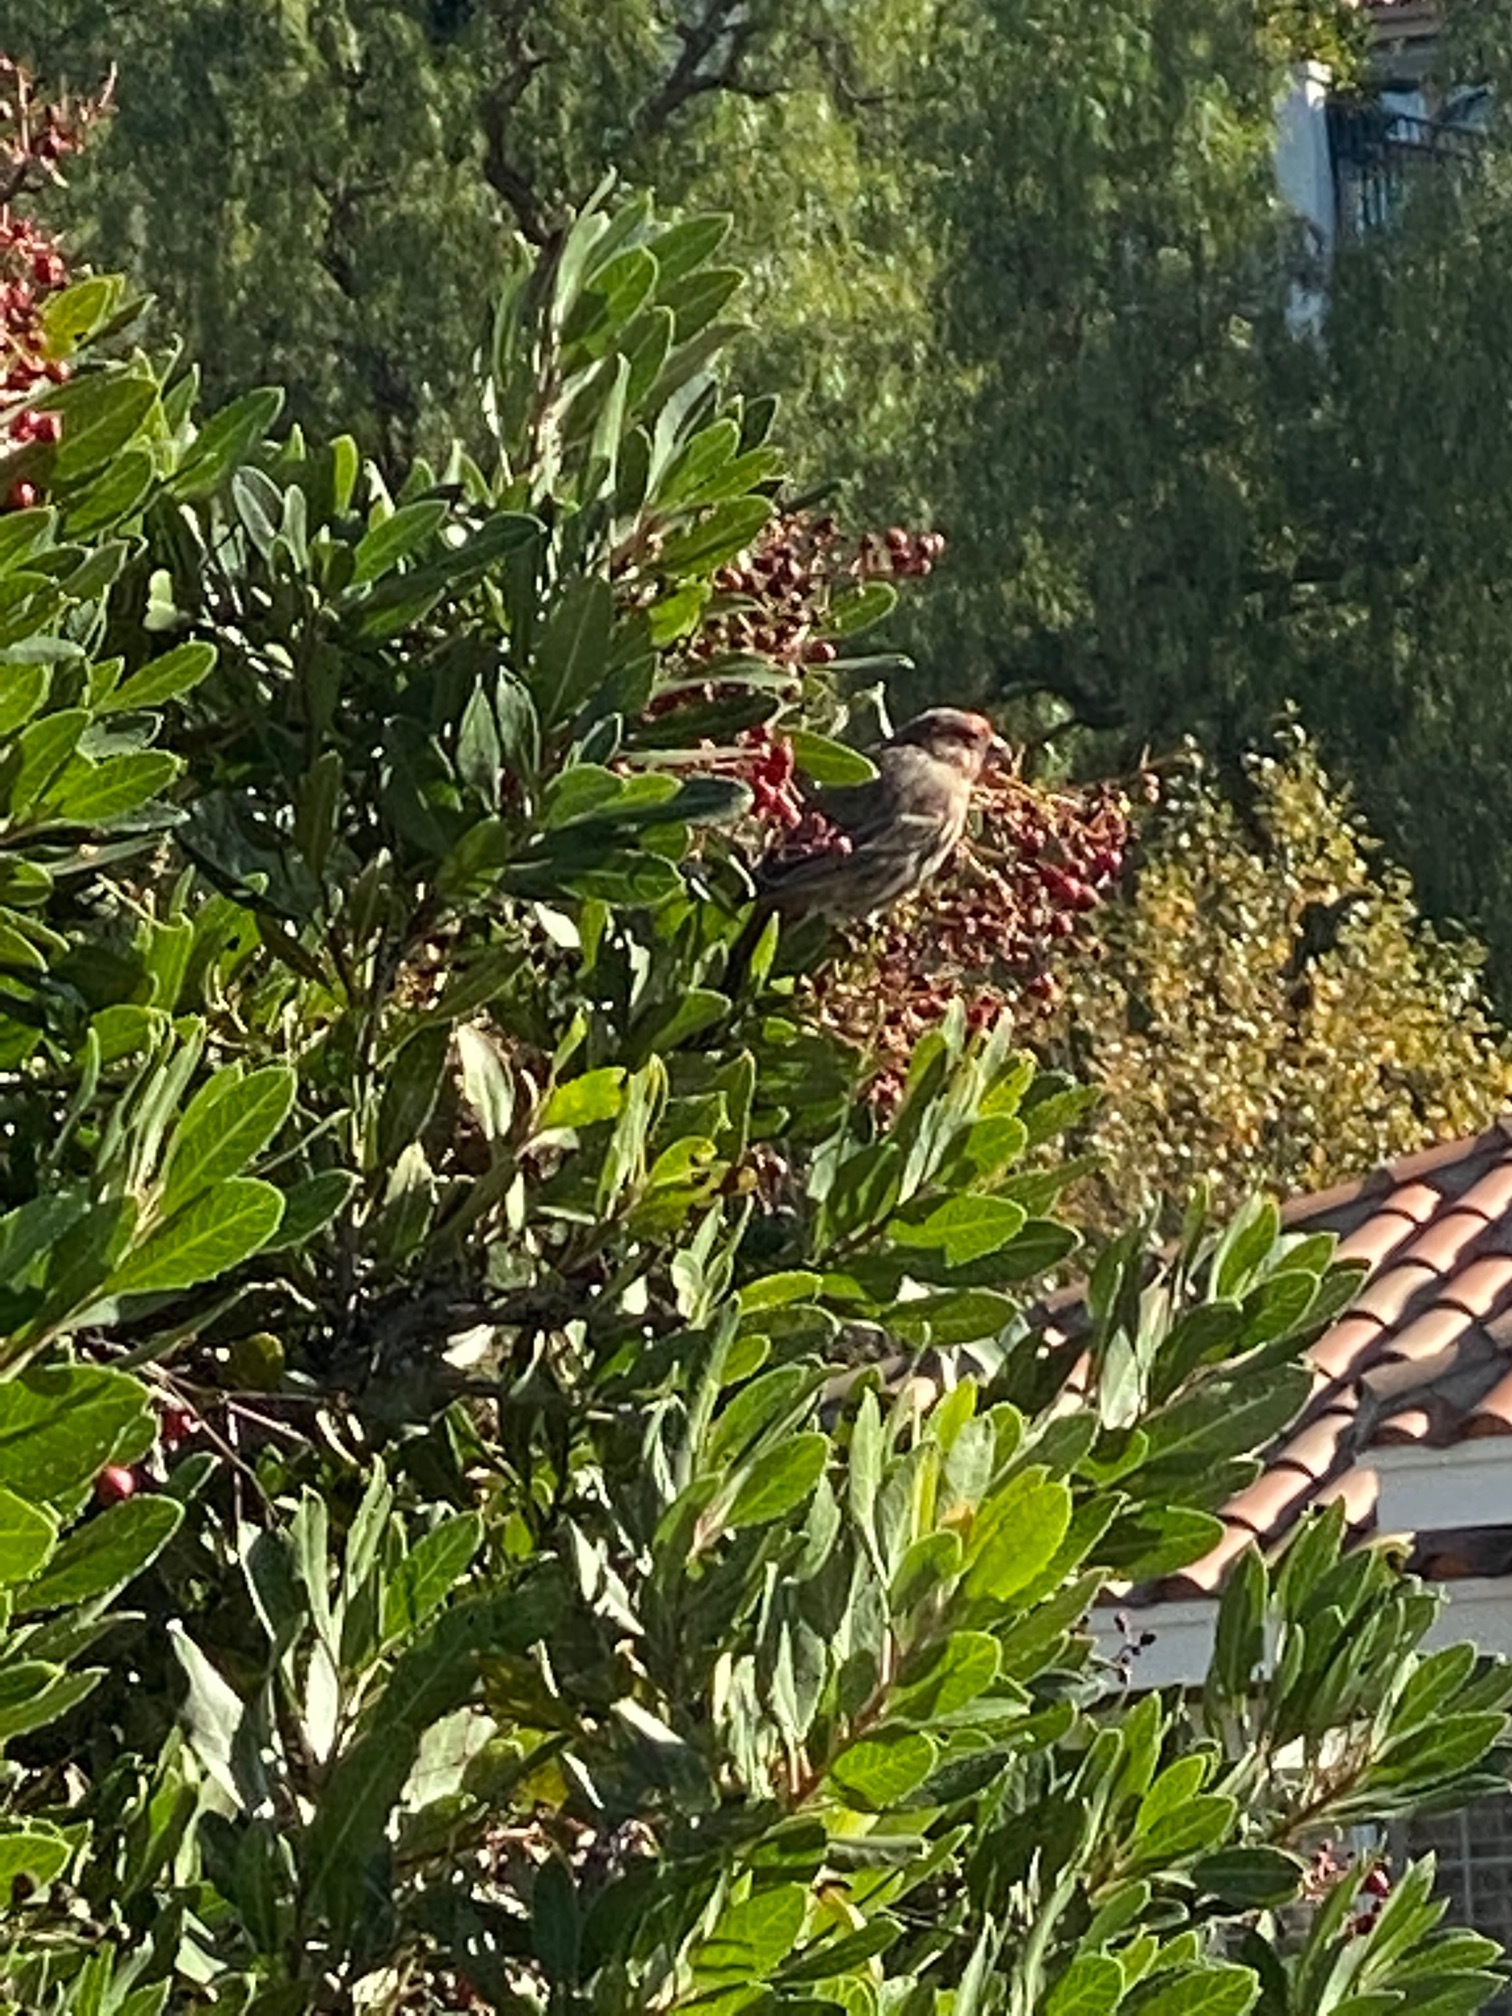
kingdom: Animalia
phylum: Chordata
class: Aves
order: Passeriformes
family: Fringillidae
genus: Haemorhous
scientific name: Haemorhous mexicanus
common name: House finch
